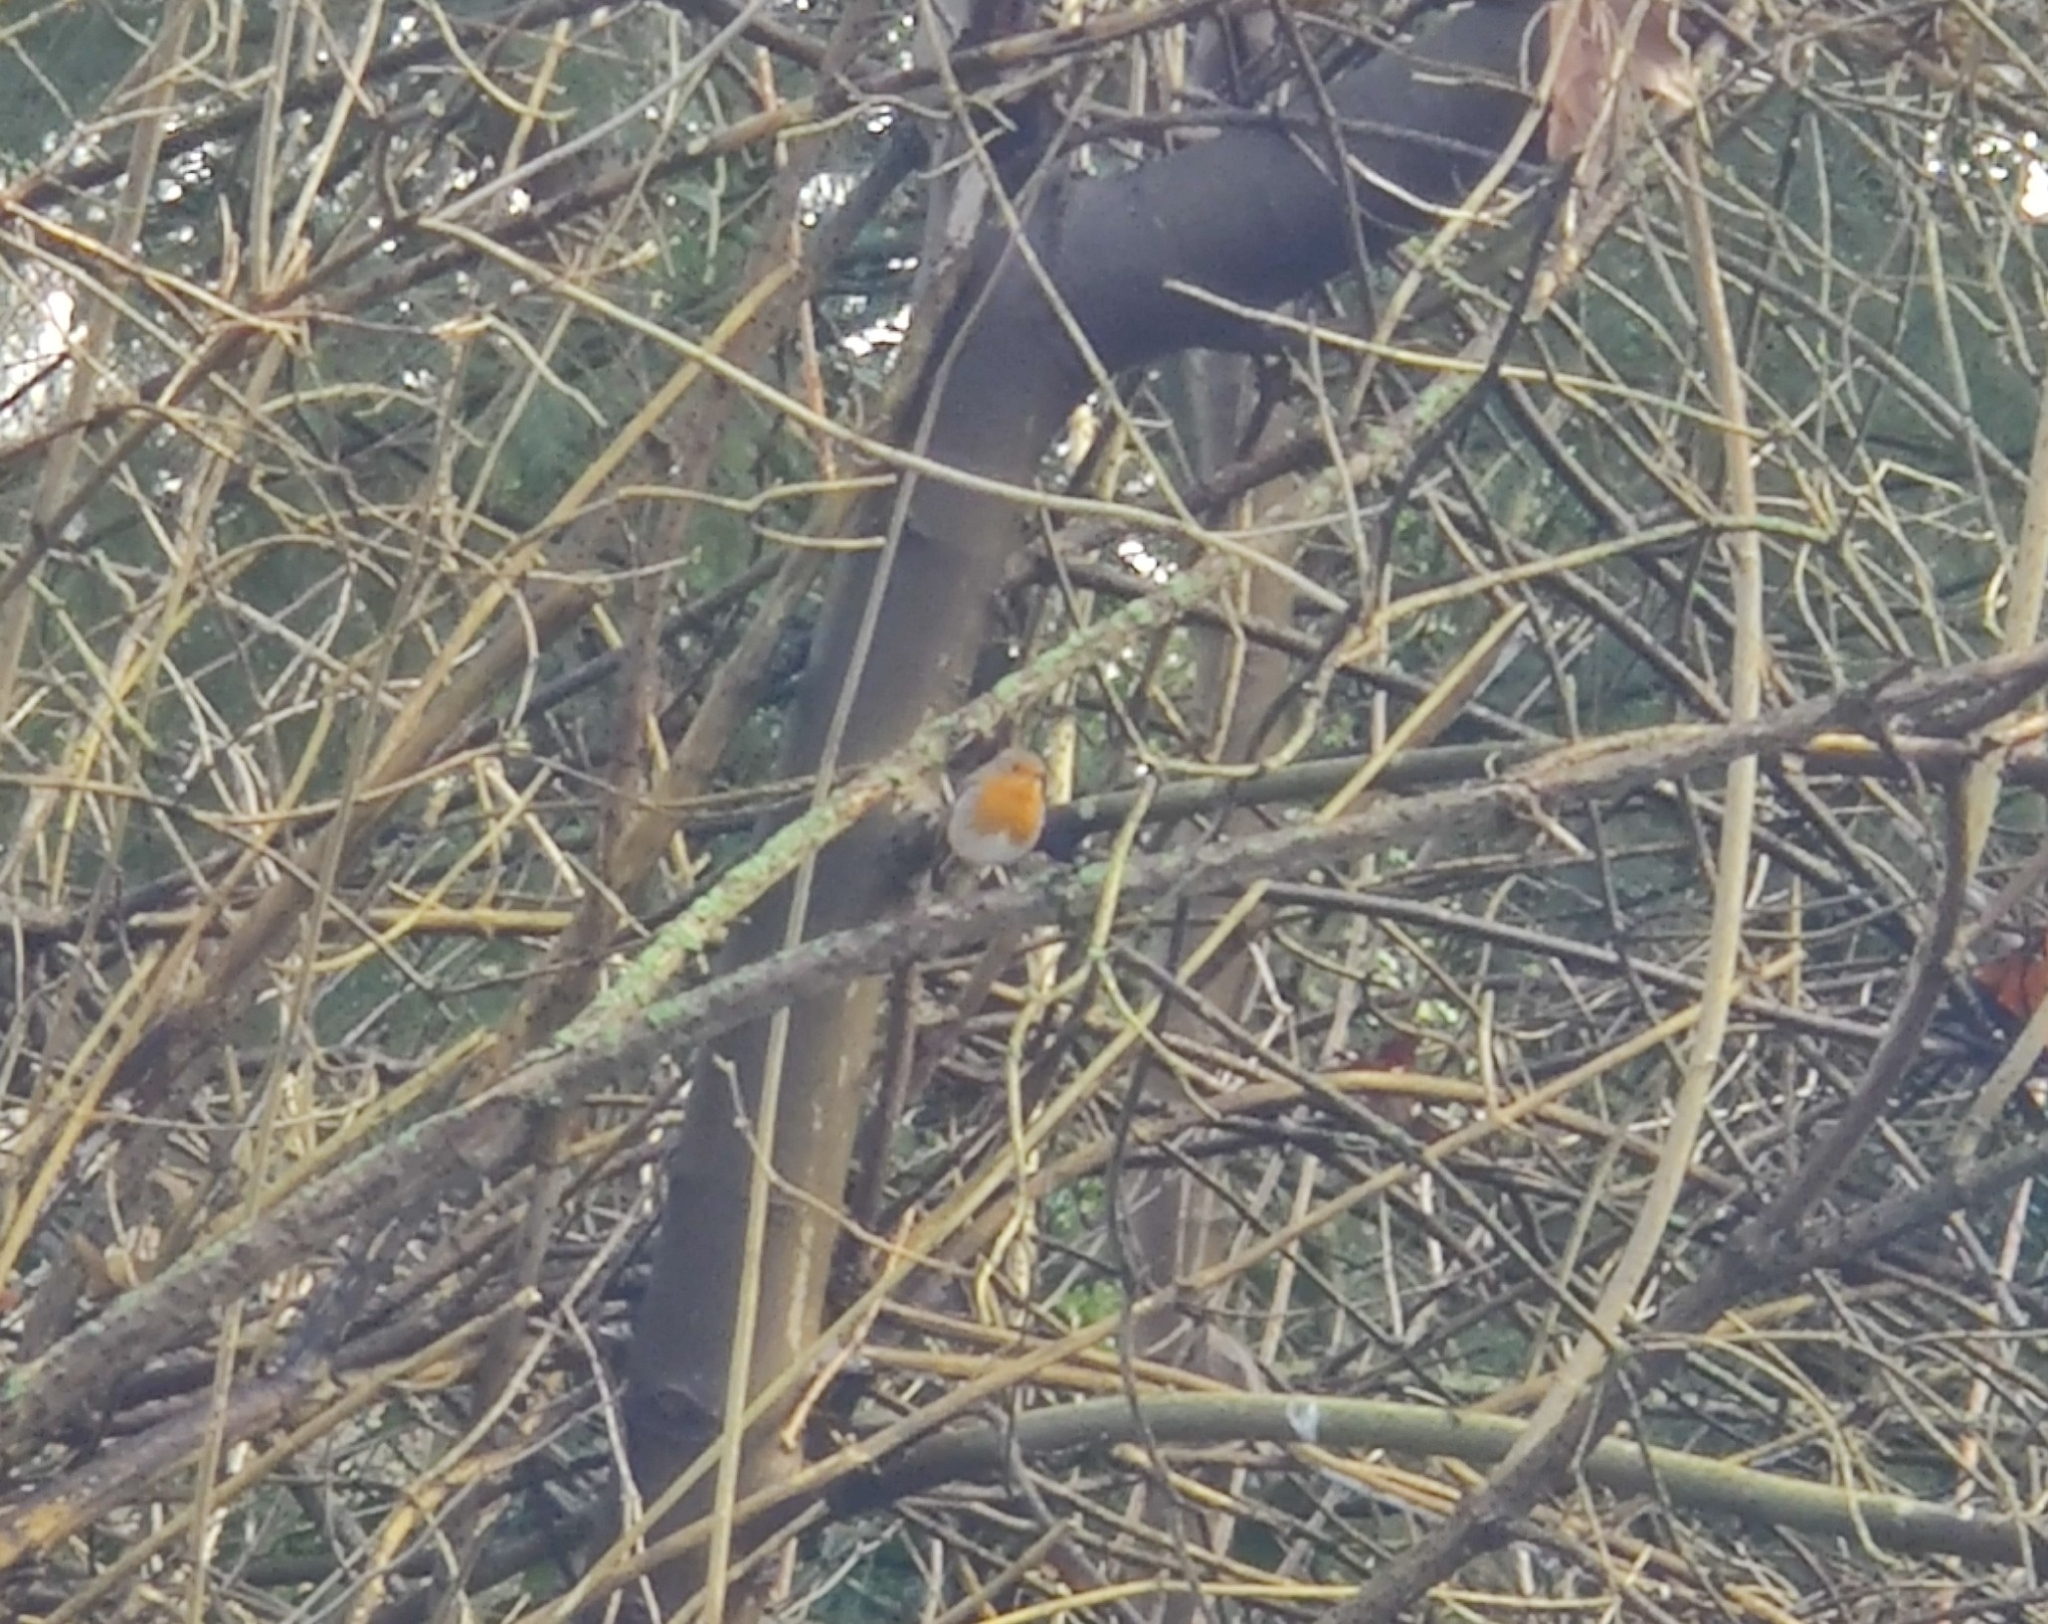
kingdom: Animalia
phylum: Chordata
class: Aves
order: Passeriformes
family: Muscicapidae
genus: Erithacus
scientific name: Erithacus rubecula
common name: European robin
